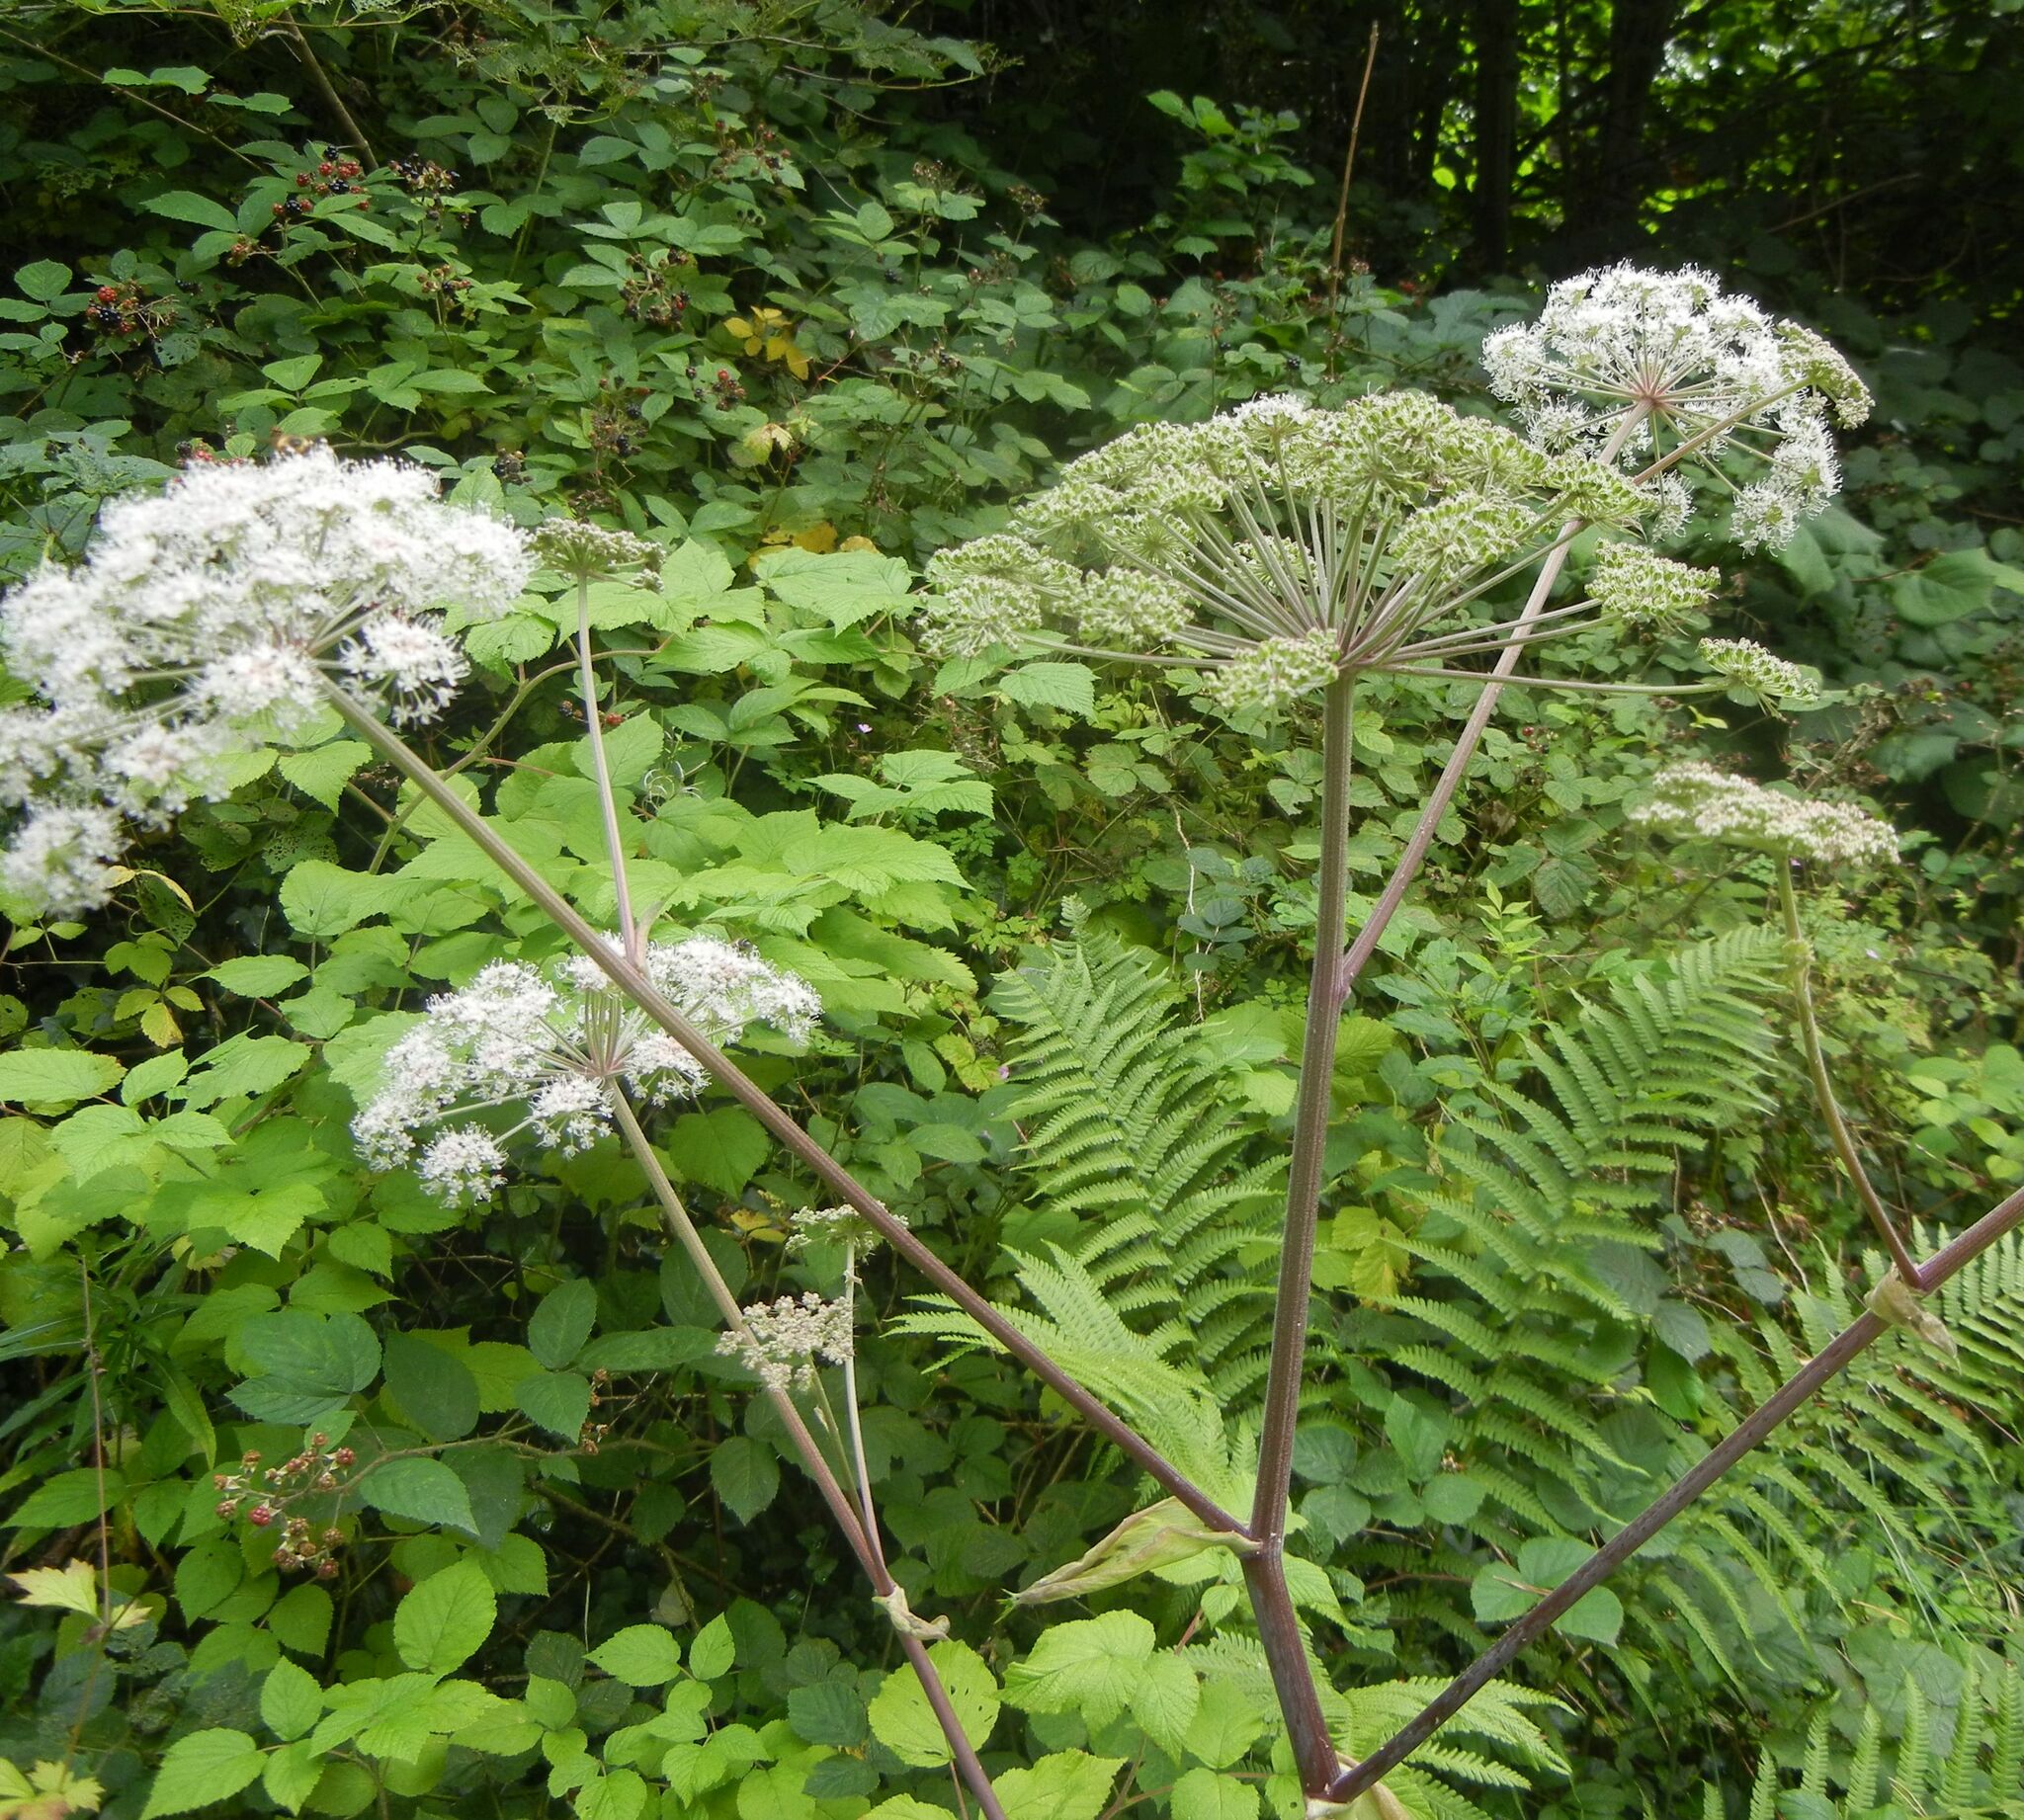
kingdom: Plantae
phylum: Tracheophyta
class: Magnoliopsida
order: Apiales
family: Apiaceae
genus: Angelica
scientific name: Angelica sylvestris
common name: Wild angelica
